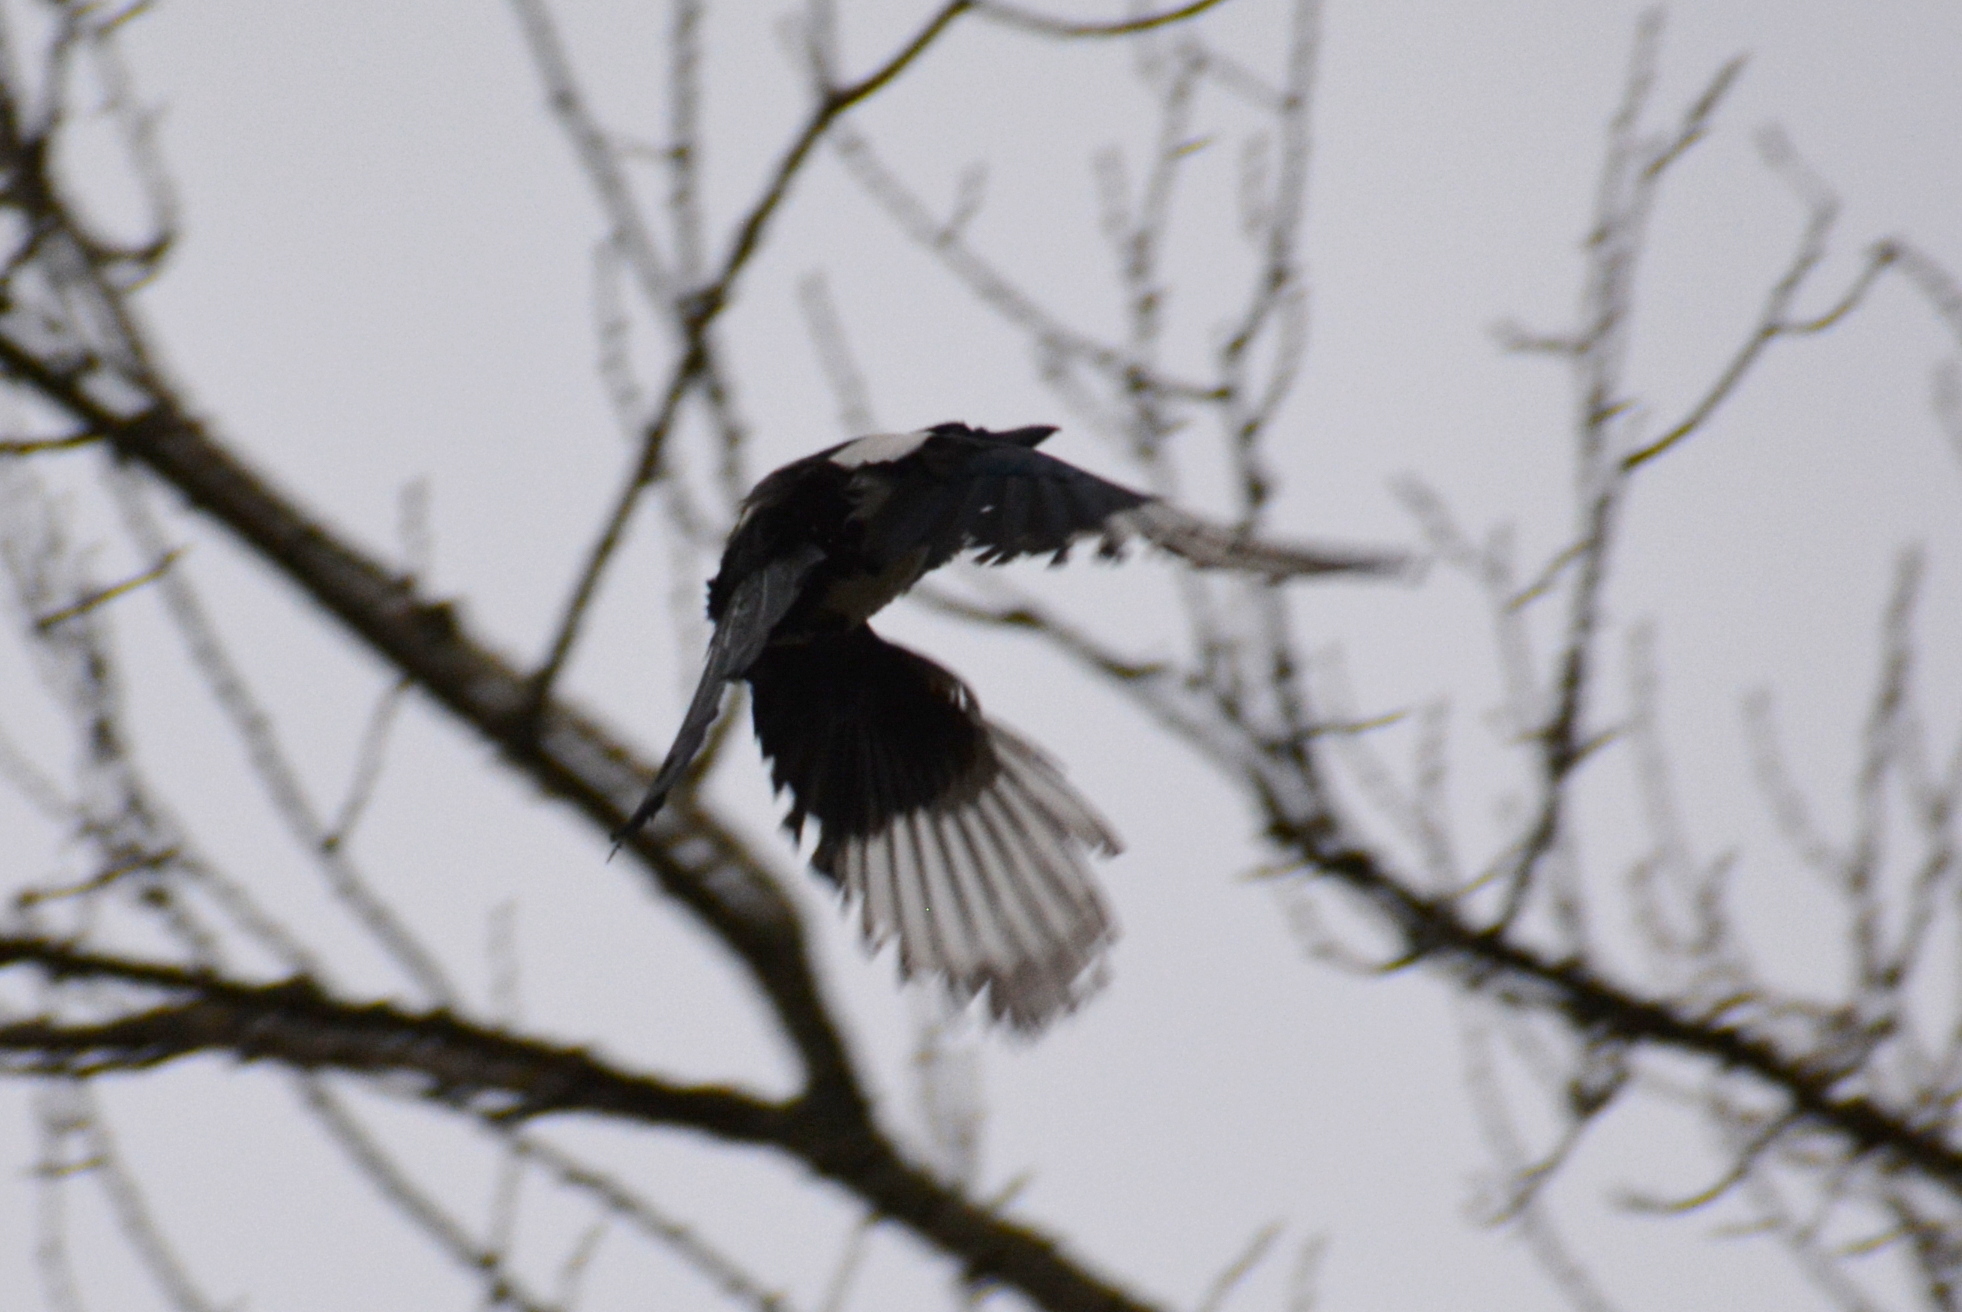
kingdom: Animalia
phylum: Chordata
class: Aves
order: Passeriformes
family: Corvidae
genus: Pica
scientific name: Pica pica
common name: Eurasian magpie
